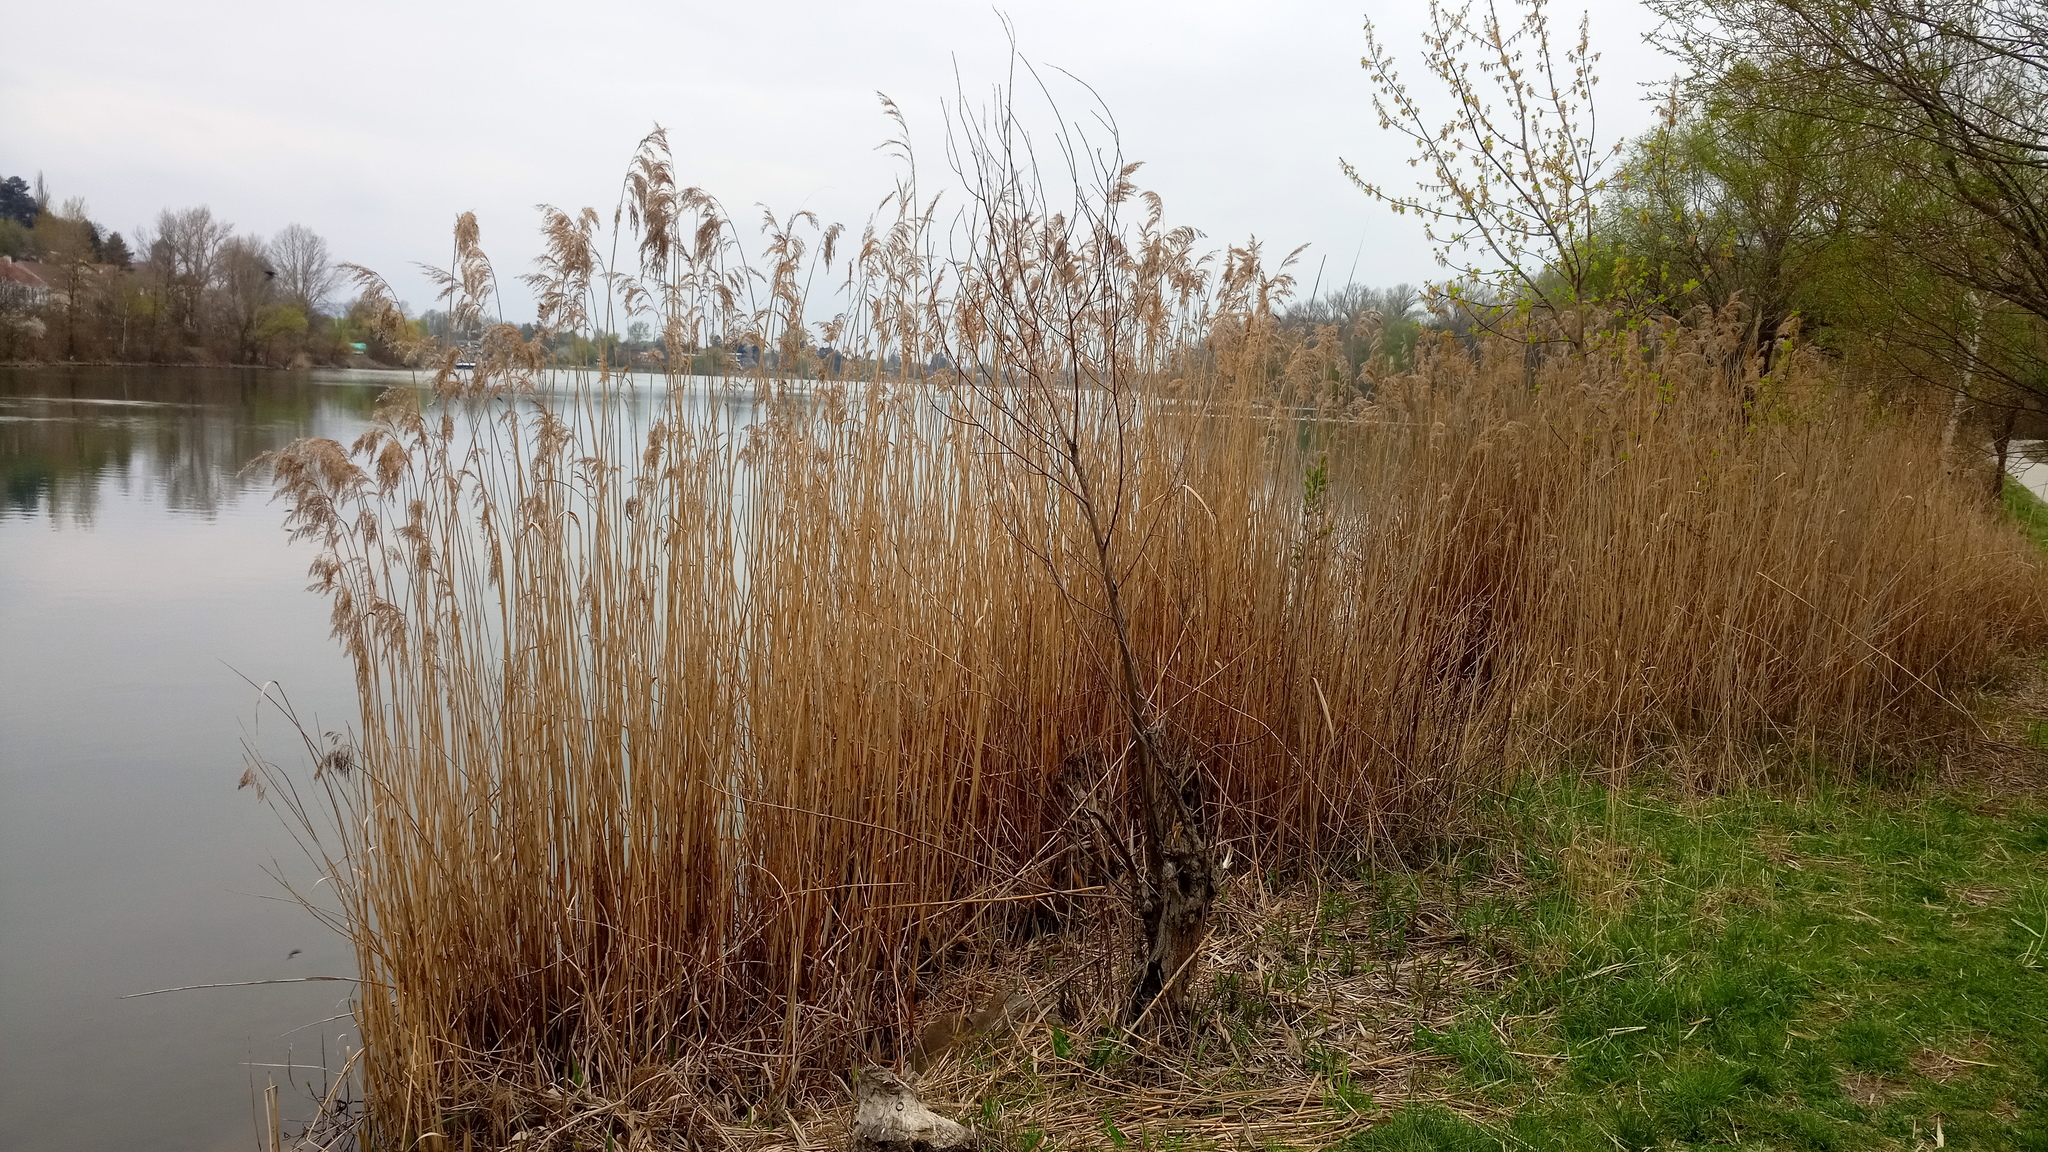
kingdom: Plantae
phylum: Tracheophyta
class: Liliopsida
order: Poales
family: Poaceae
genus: Phragmites
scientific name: Phragmites australis
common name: Common reed
